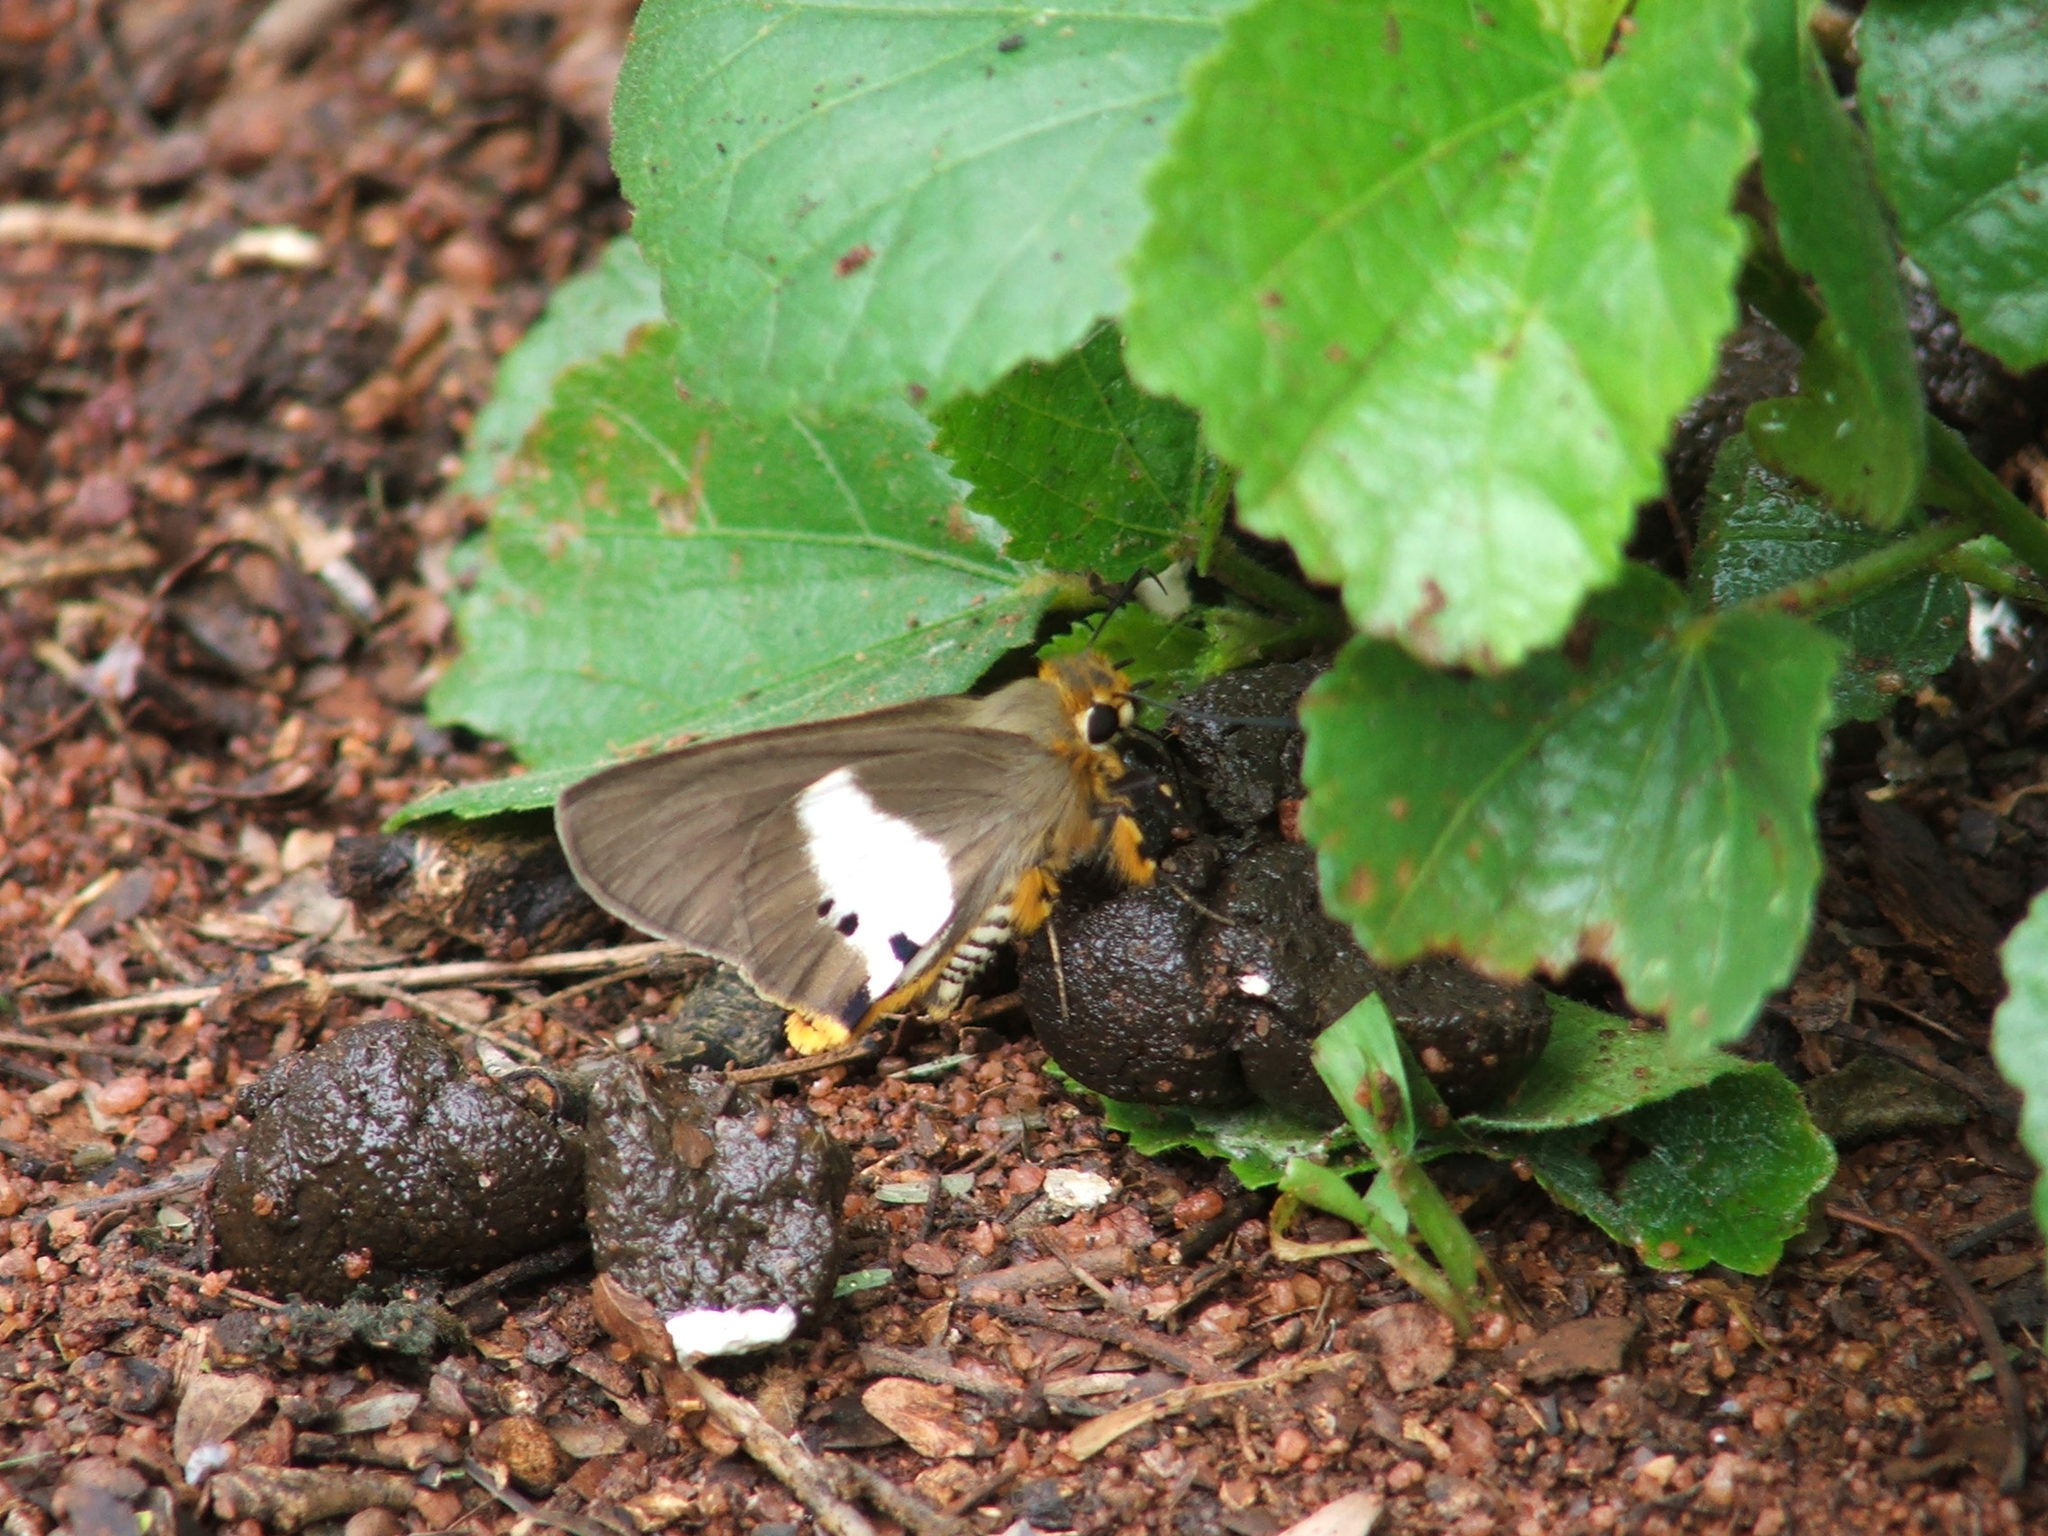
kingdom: Animalia
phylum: Arthropoda
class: Insecta
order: Lepidoptera
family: Hesperiidae
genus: Coeliades
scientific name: Coeliades pisistratus
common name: Two-pip policeman
